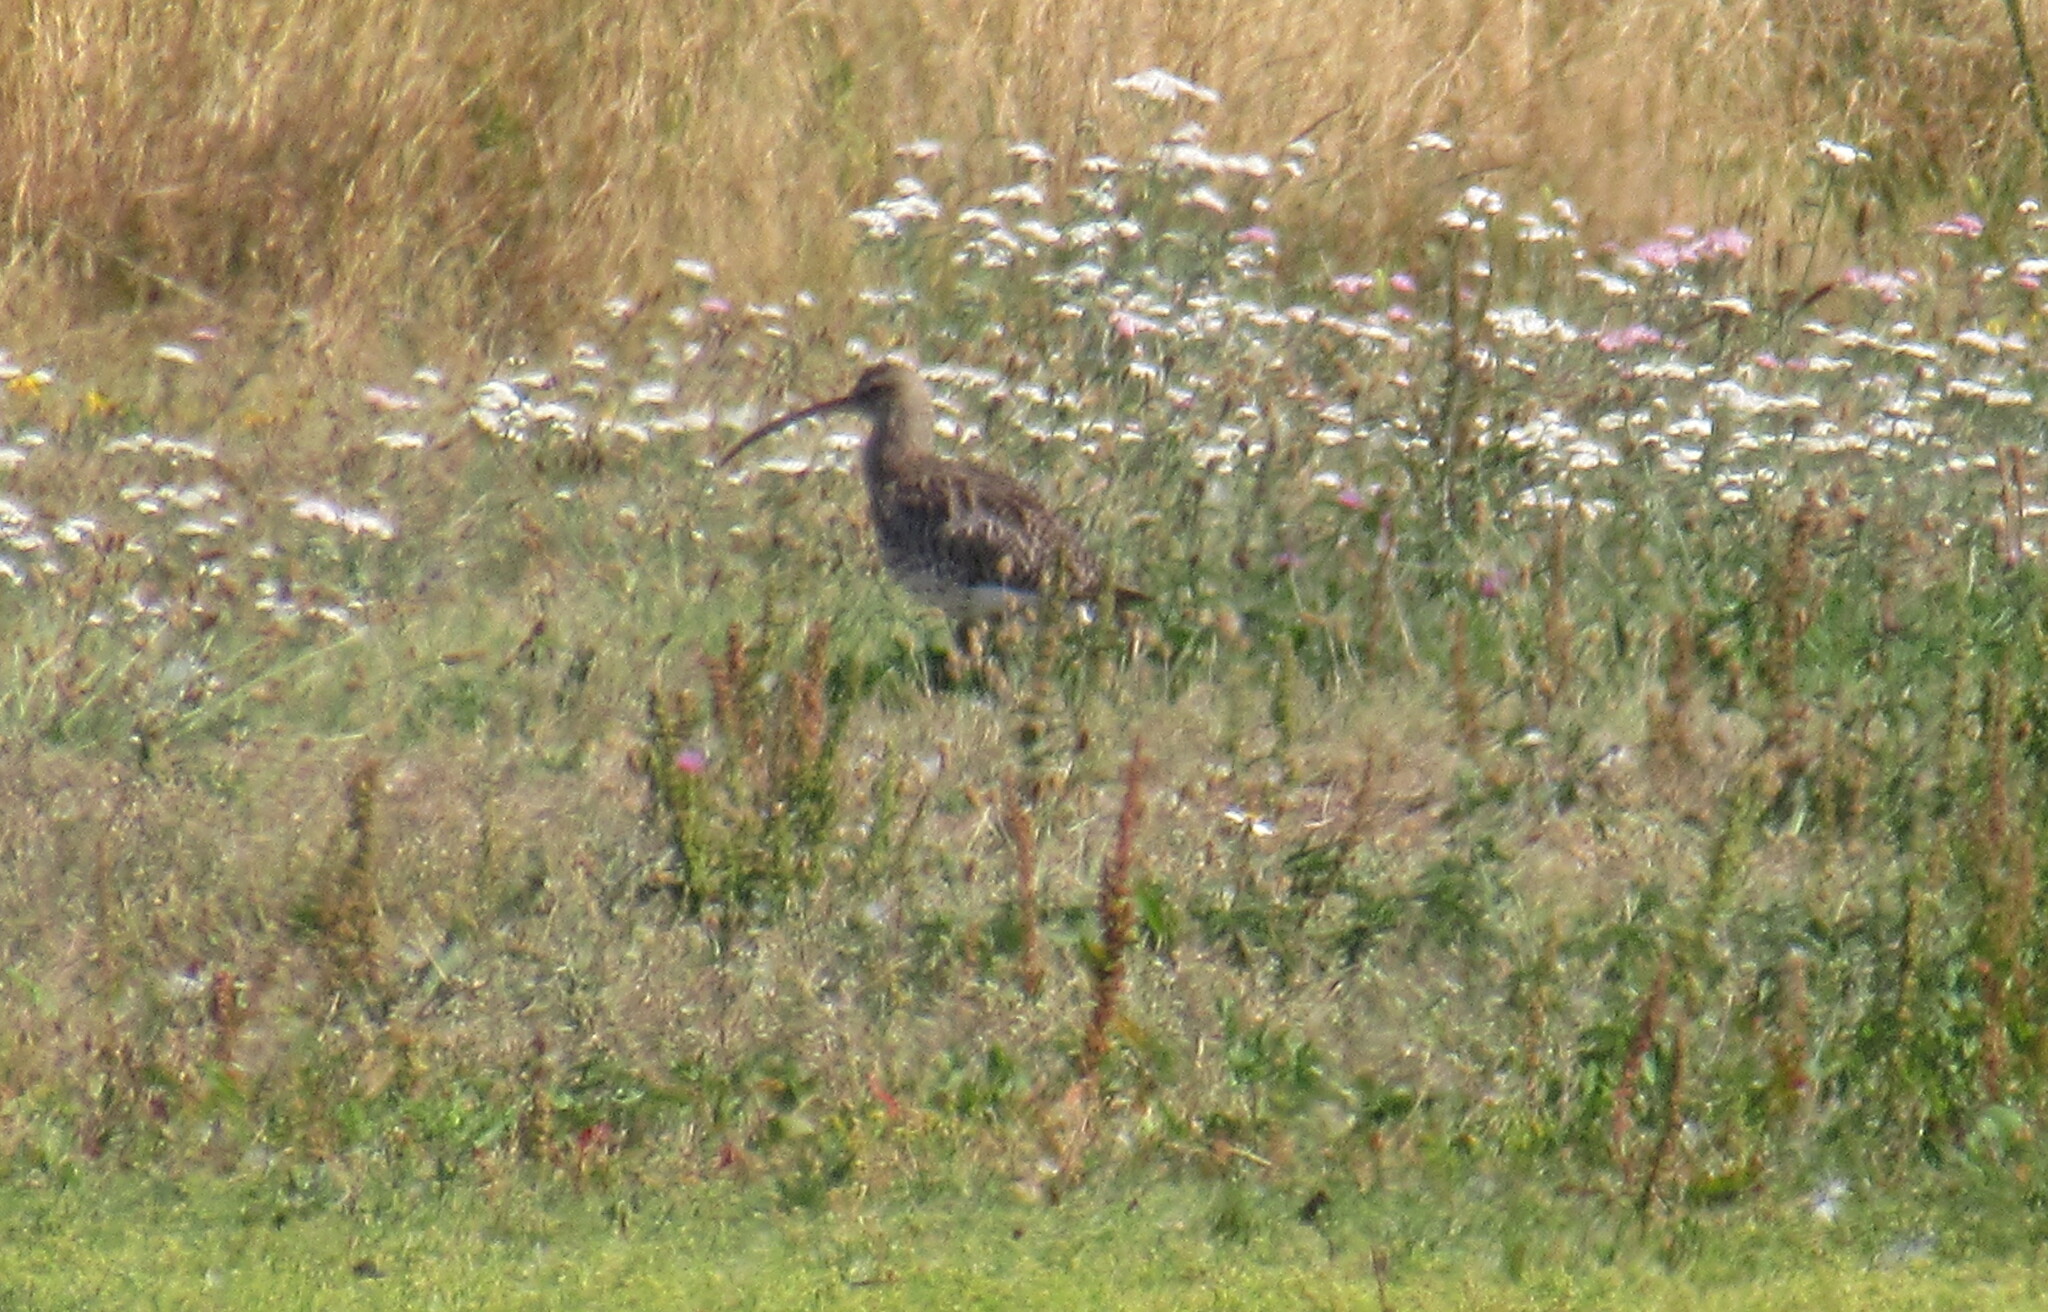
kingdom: Animalia
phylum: Chordata
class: Aves
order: Charadriiformes
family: Scolopacidae
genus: Numenius
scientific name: Numenius arquata
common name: Eurasian curlew
